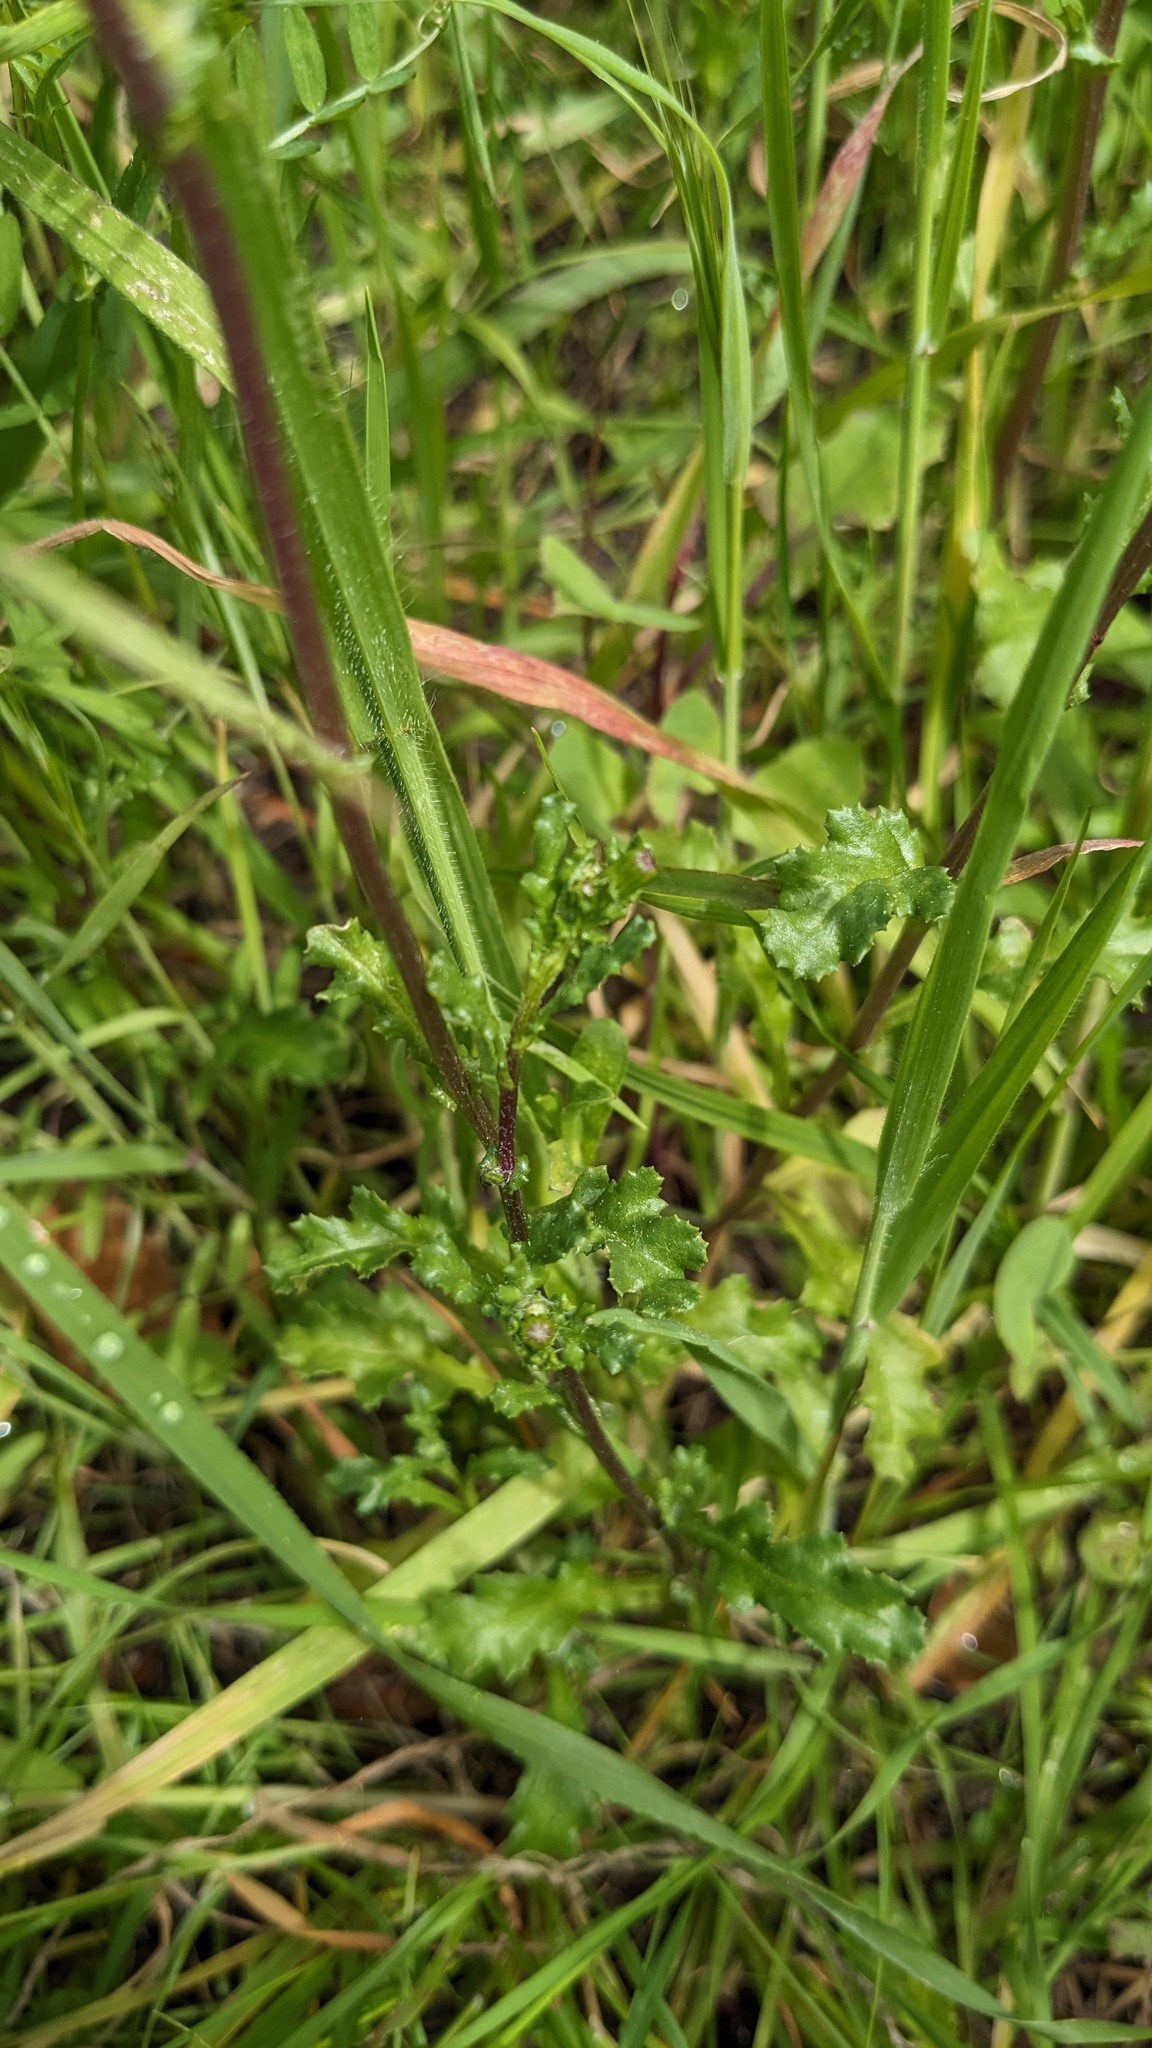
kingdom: Plantae
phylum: Tracheophyta
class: Magnoliopsida
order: Asterales
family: Asteraceae
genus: Senecio
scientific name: Senecio vulgaris
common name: Old-man-in-the-spring
